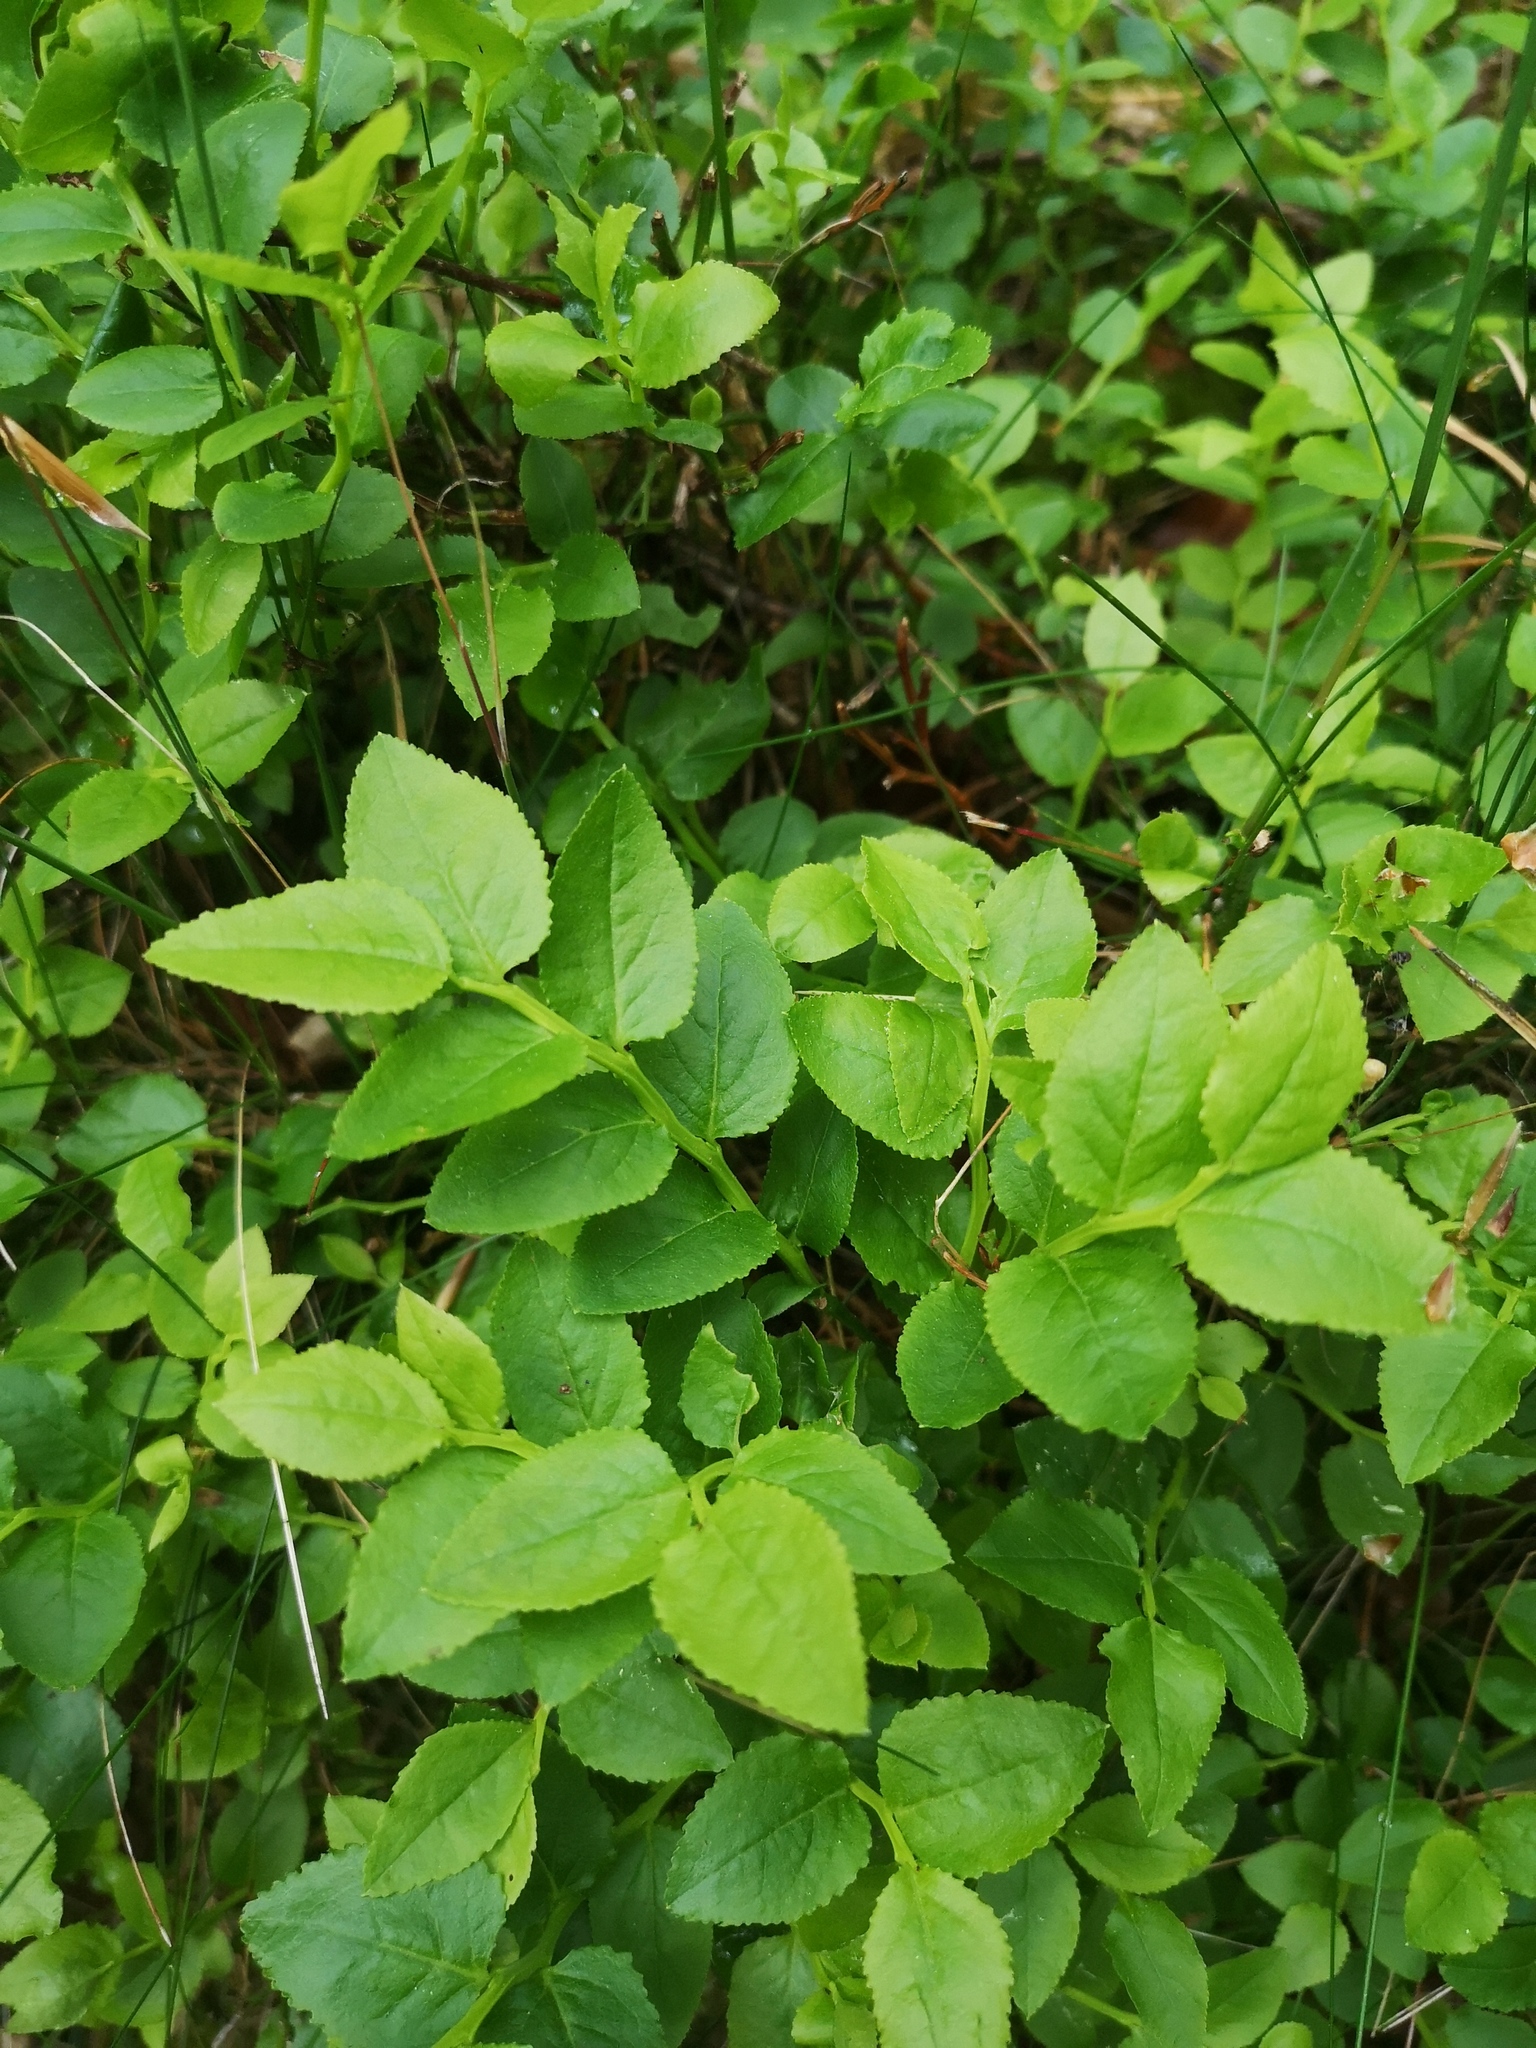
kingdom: Plantae
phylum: Tracheophyta
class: Magnoliopsida
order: Ericales
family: Ericaceae
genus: Vaccinium
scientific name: Vaccinium myrtillus
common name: Bilberry
